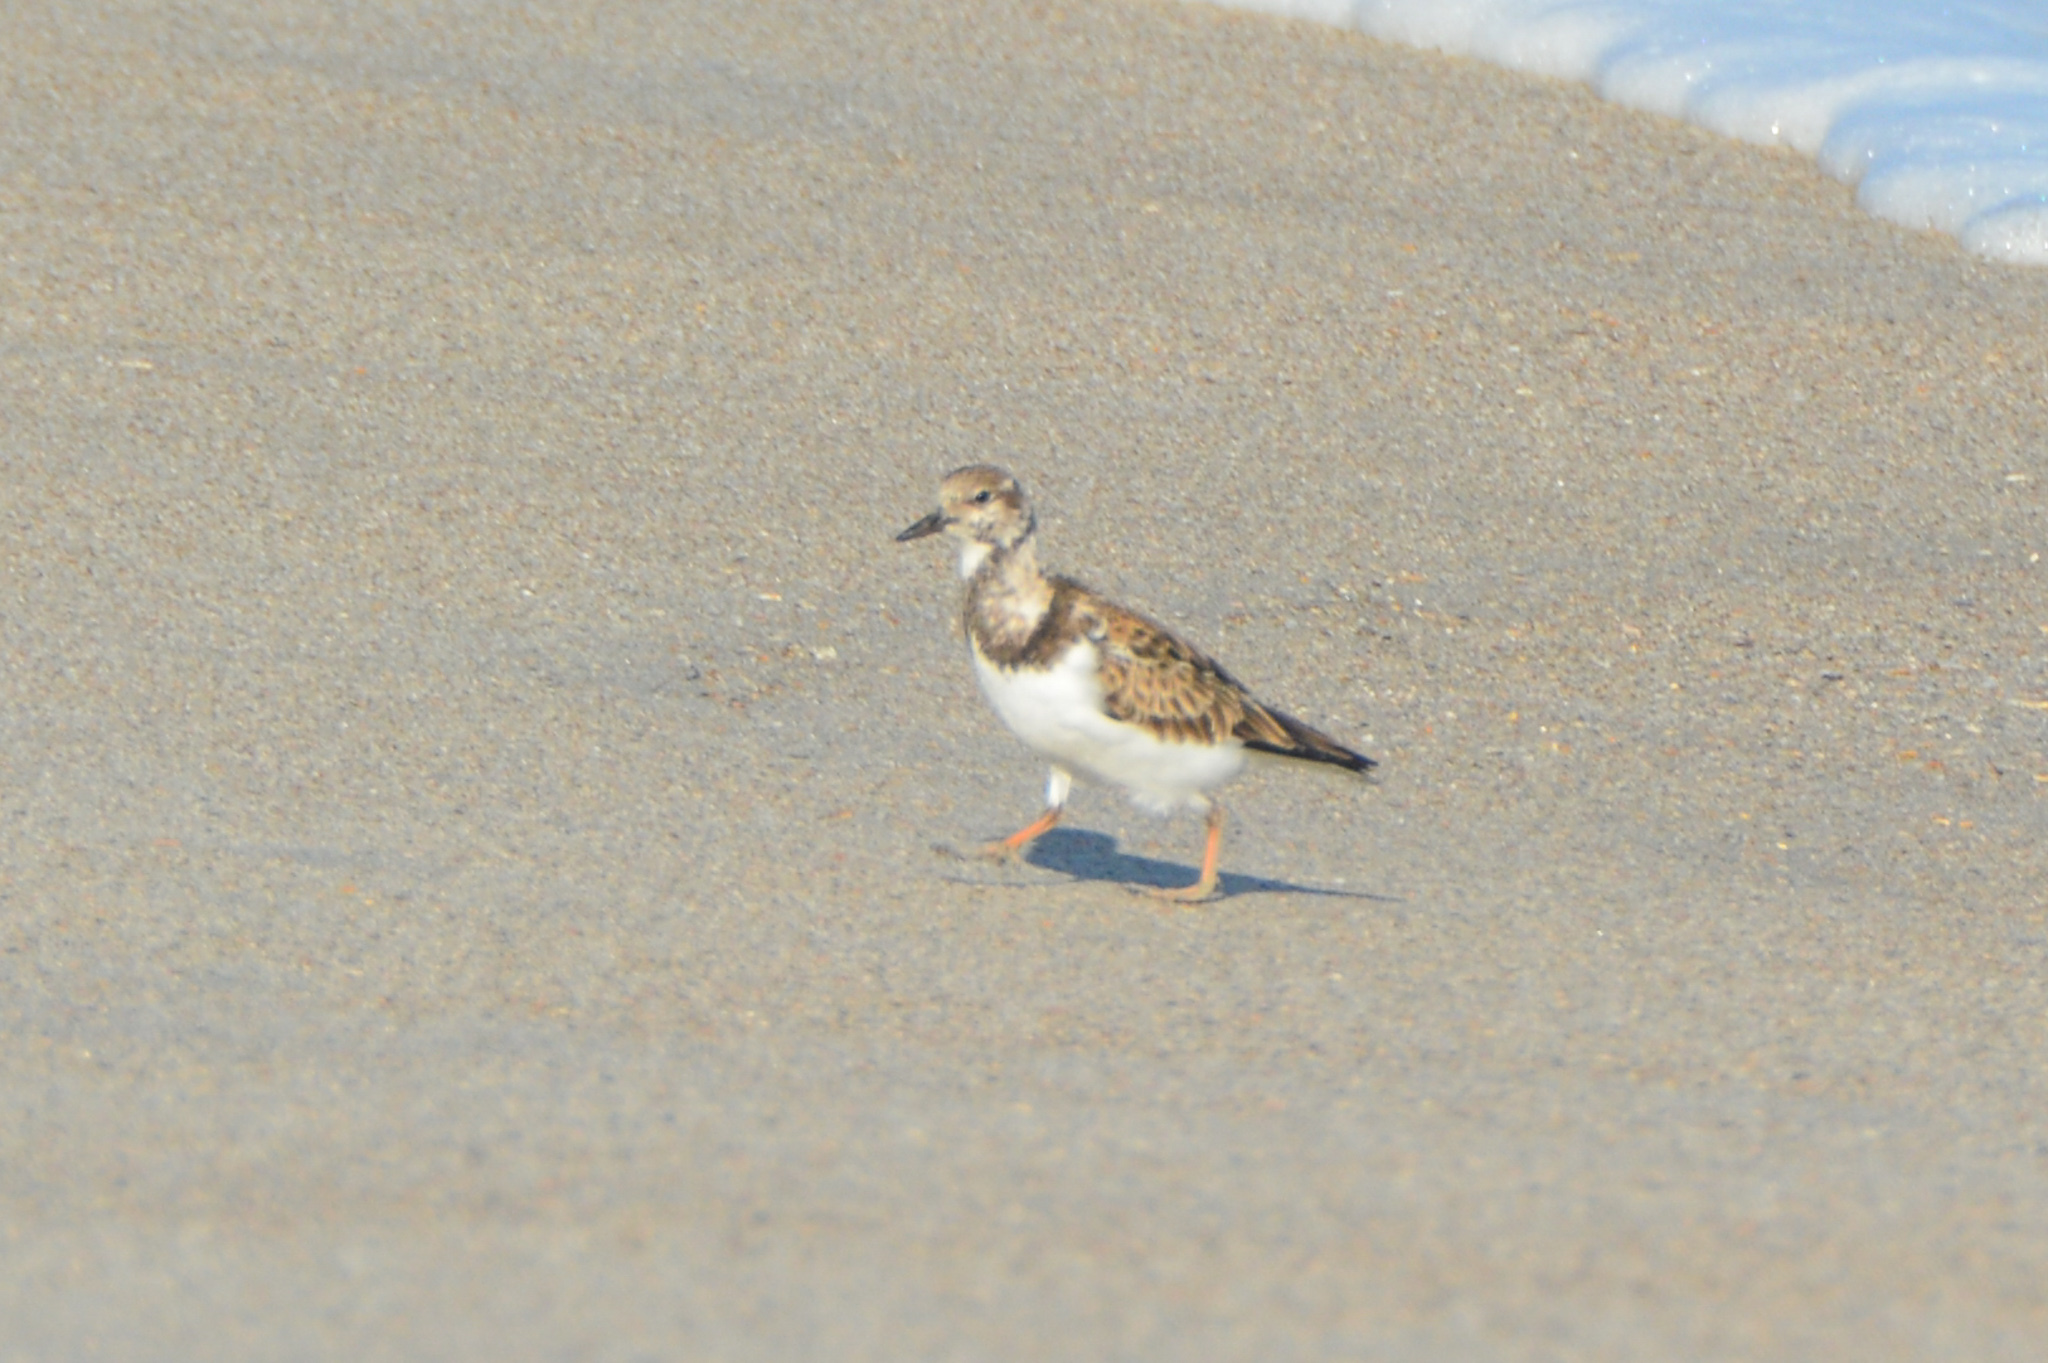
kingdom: Animalia
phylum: Chordata
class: Aves
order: Charadriiformes
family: Scolopacidae
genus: Arenaria
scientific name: Arenaria interpres
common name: Ruddy turnstone
